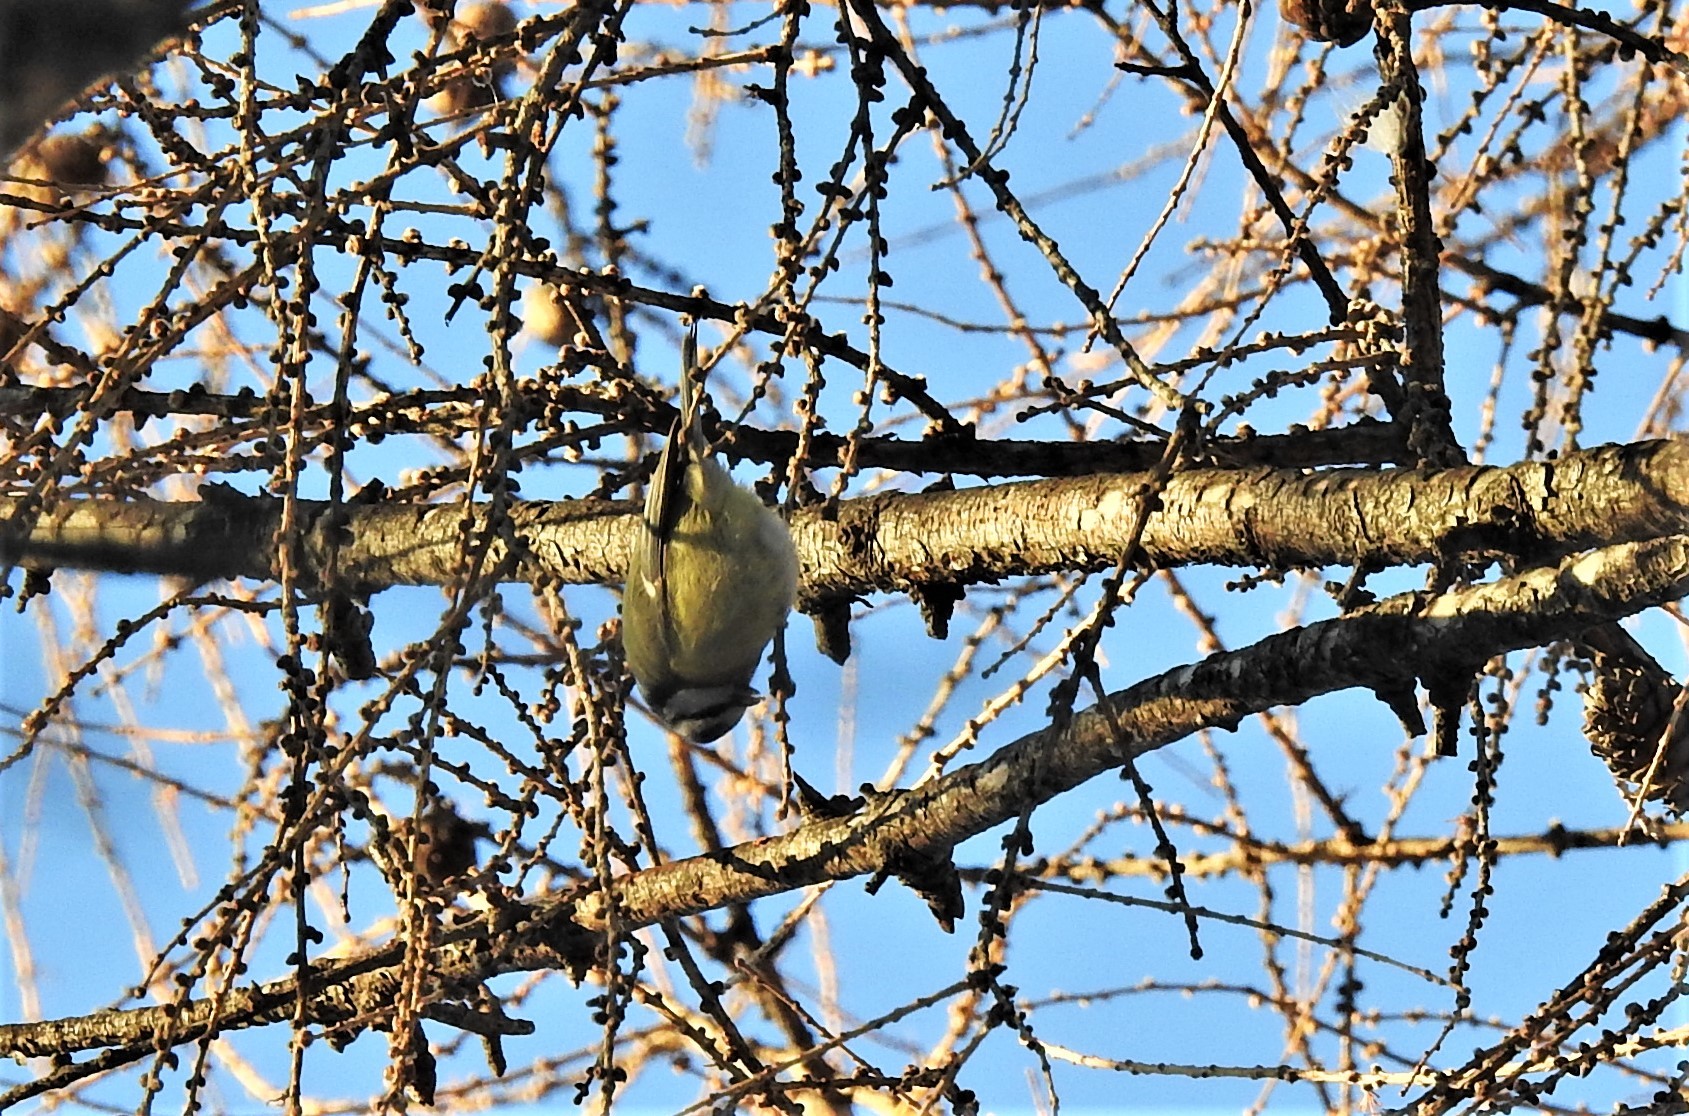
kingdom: Animalia
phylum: Chordata
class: Aves
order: Passeriformes
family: Paridae
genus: Cyanistes
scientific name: Cyanistes caeruleus
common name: Eurasian blue tit
